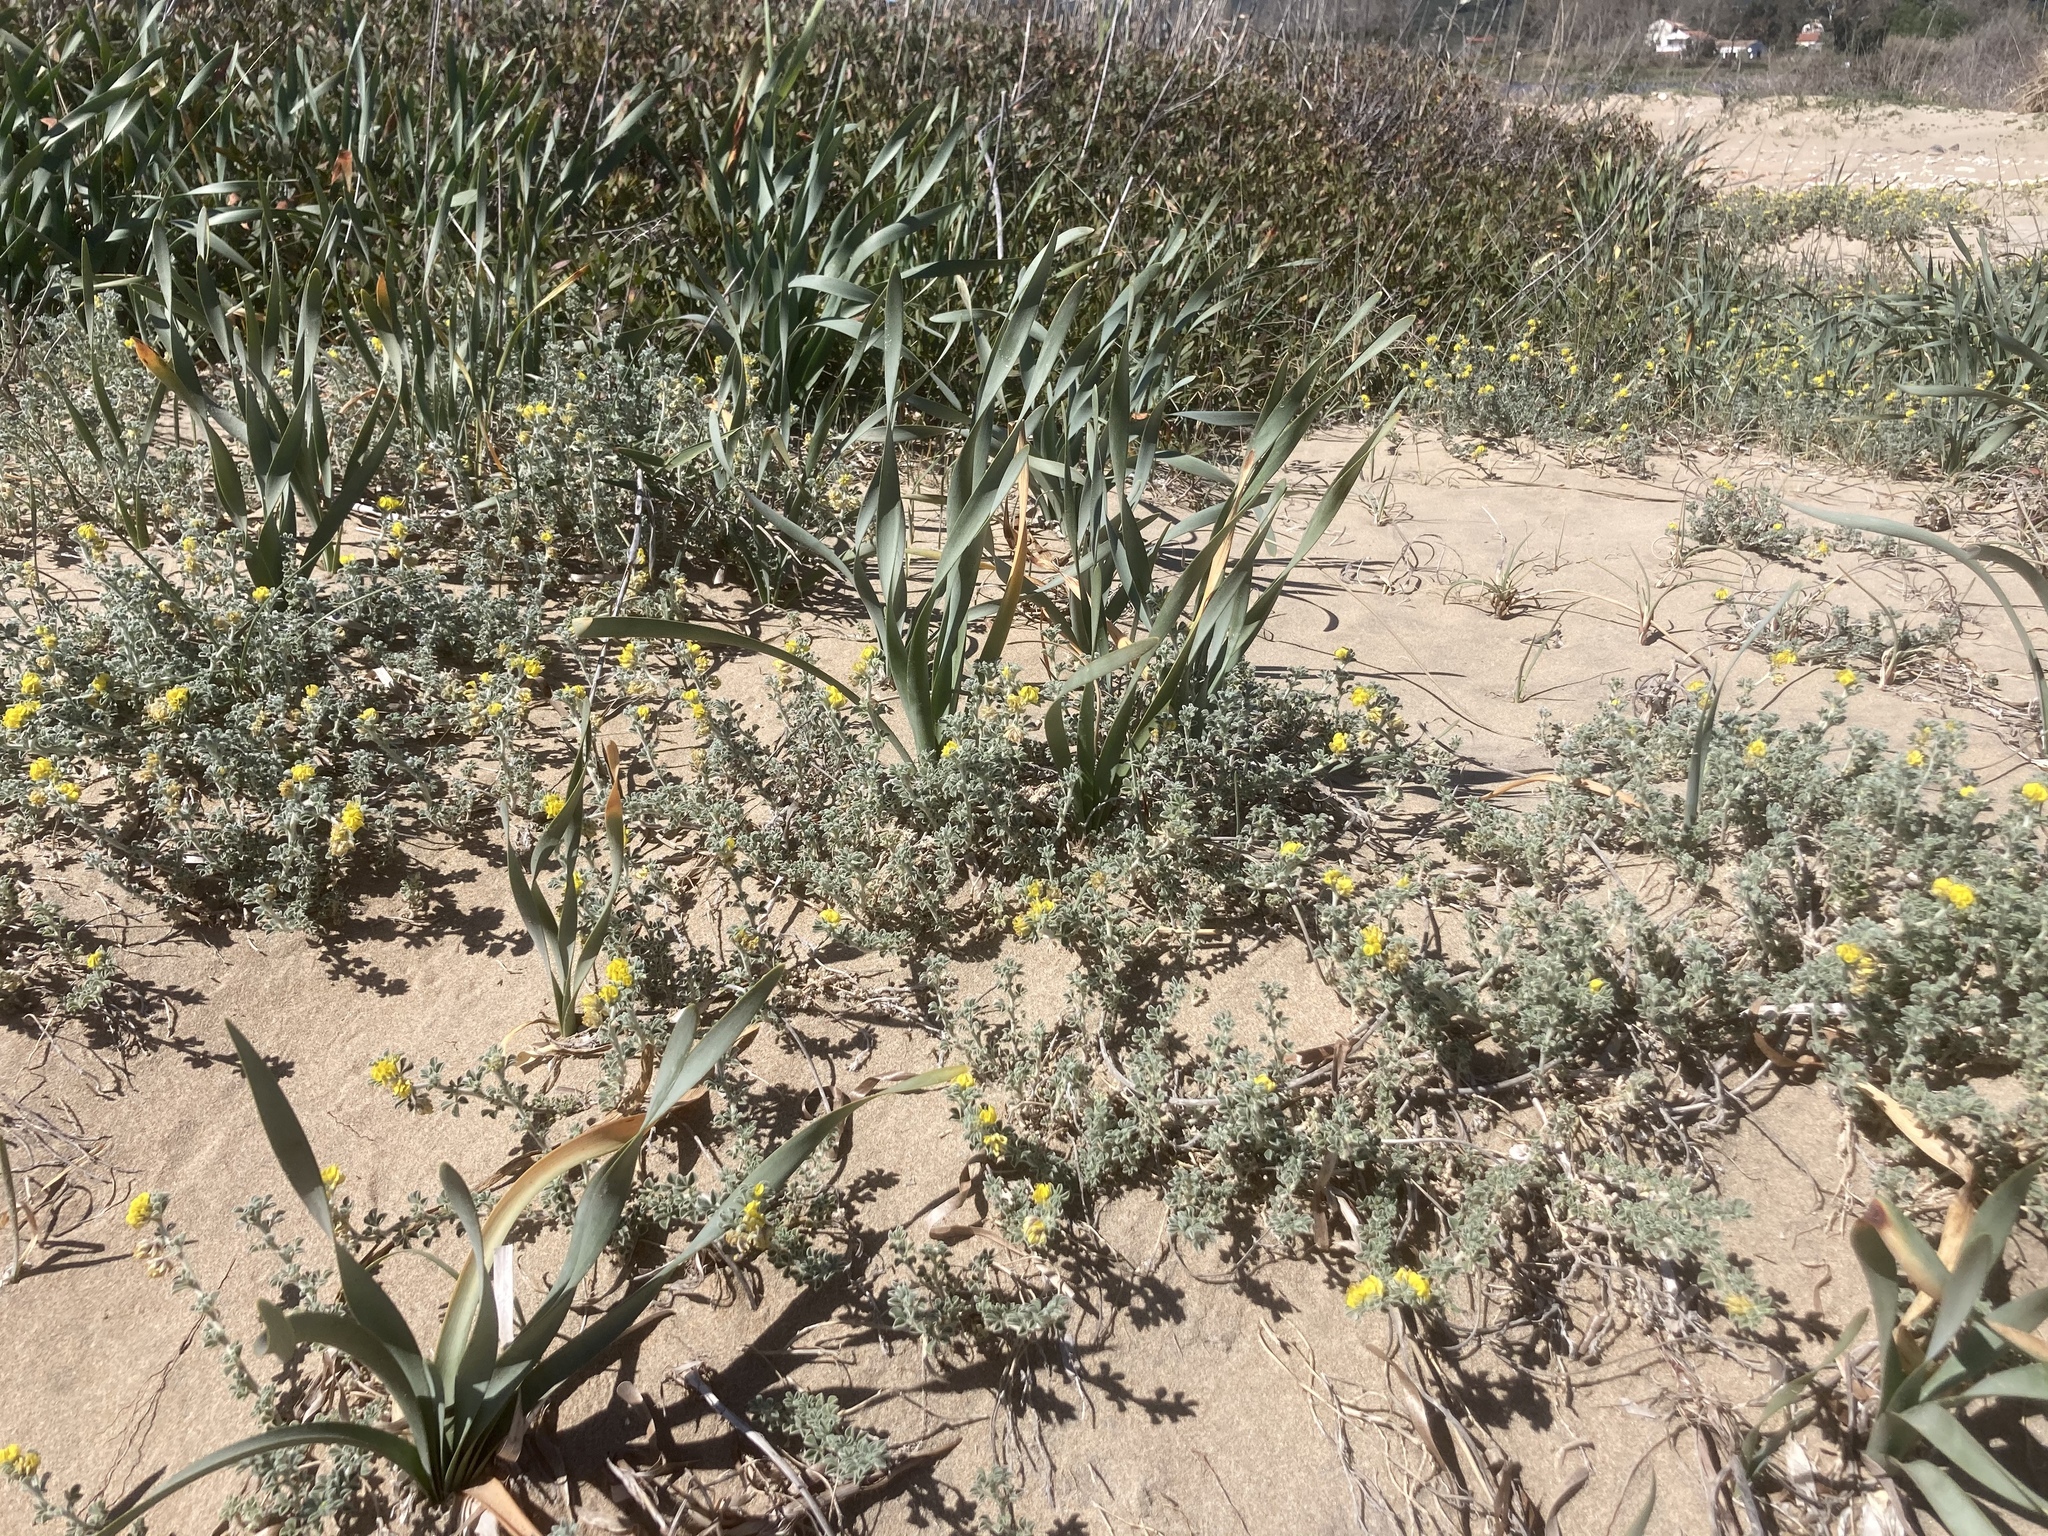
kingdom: Plantae
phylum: Tracheophyta
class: Magnoliopsida
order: Fabales
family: Fabaceae
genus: Medicago
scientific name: Medicago marina
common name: Sea medick
